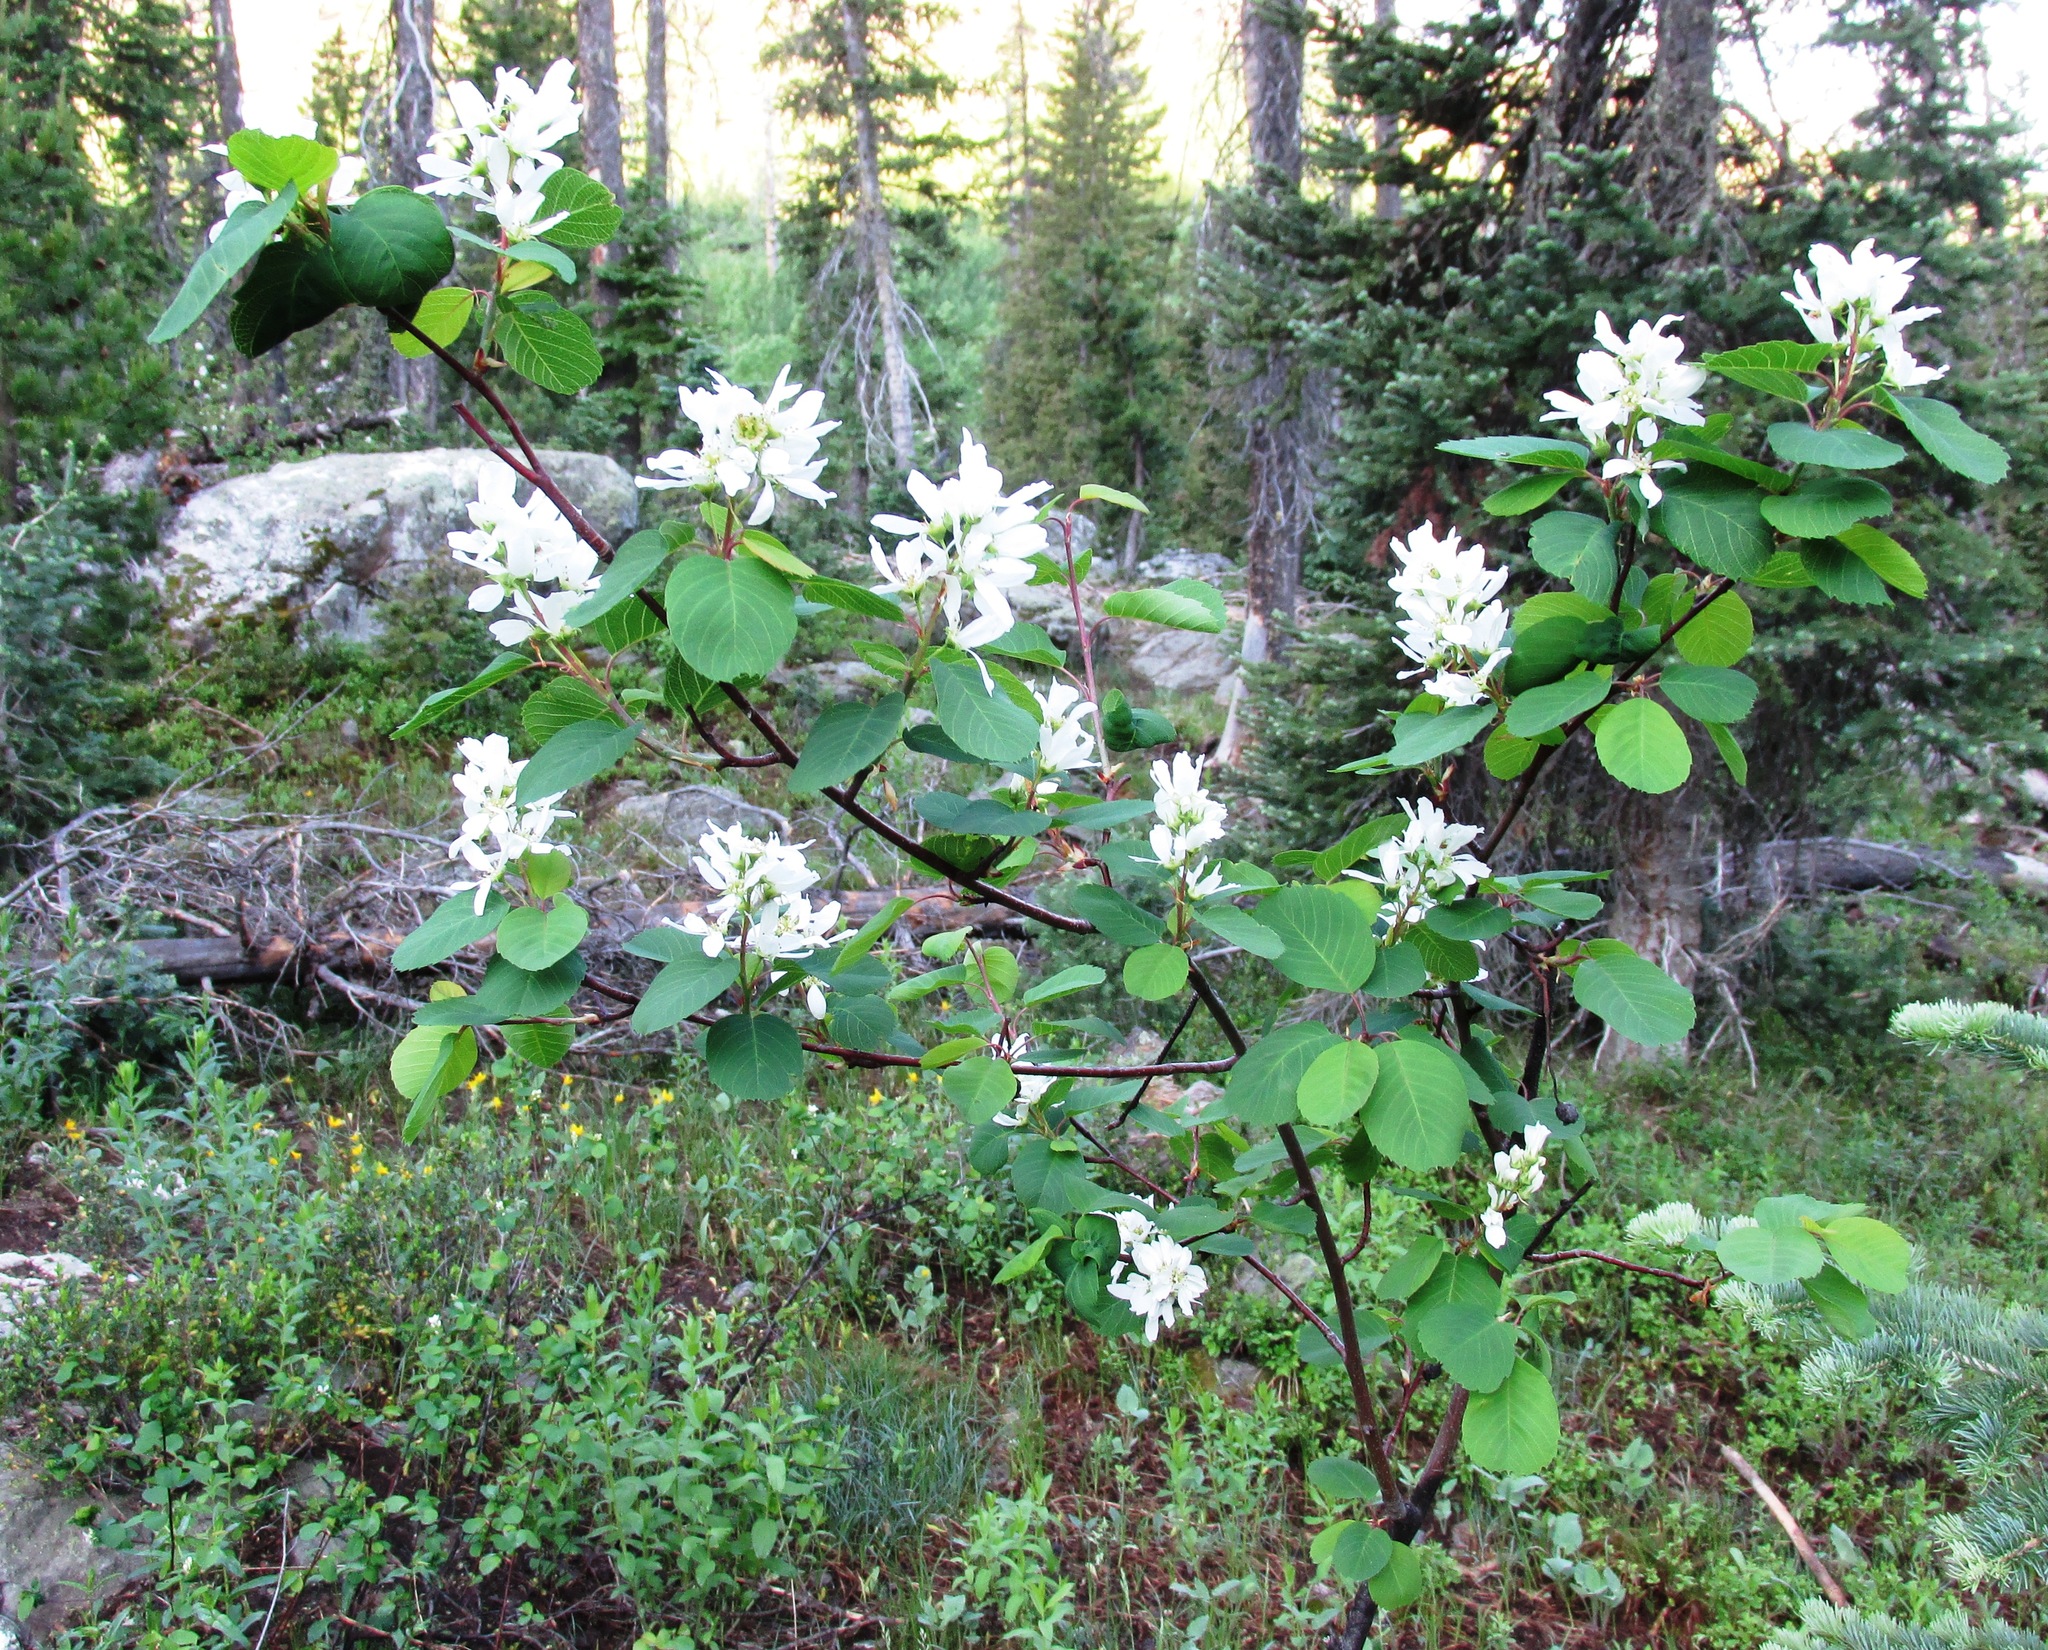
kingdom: Plantae
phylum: Tracheophyta
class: Magnoliopsida
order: Rosales
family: Rosaceae
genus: Amelanchier
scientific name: Amelanchier alnifolia
